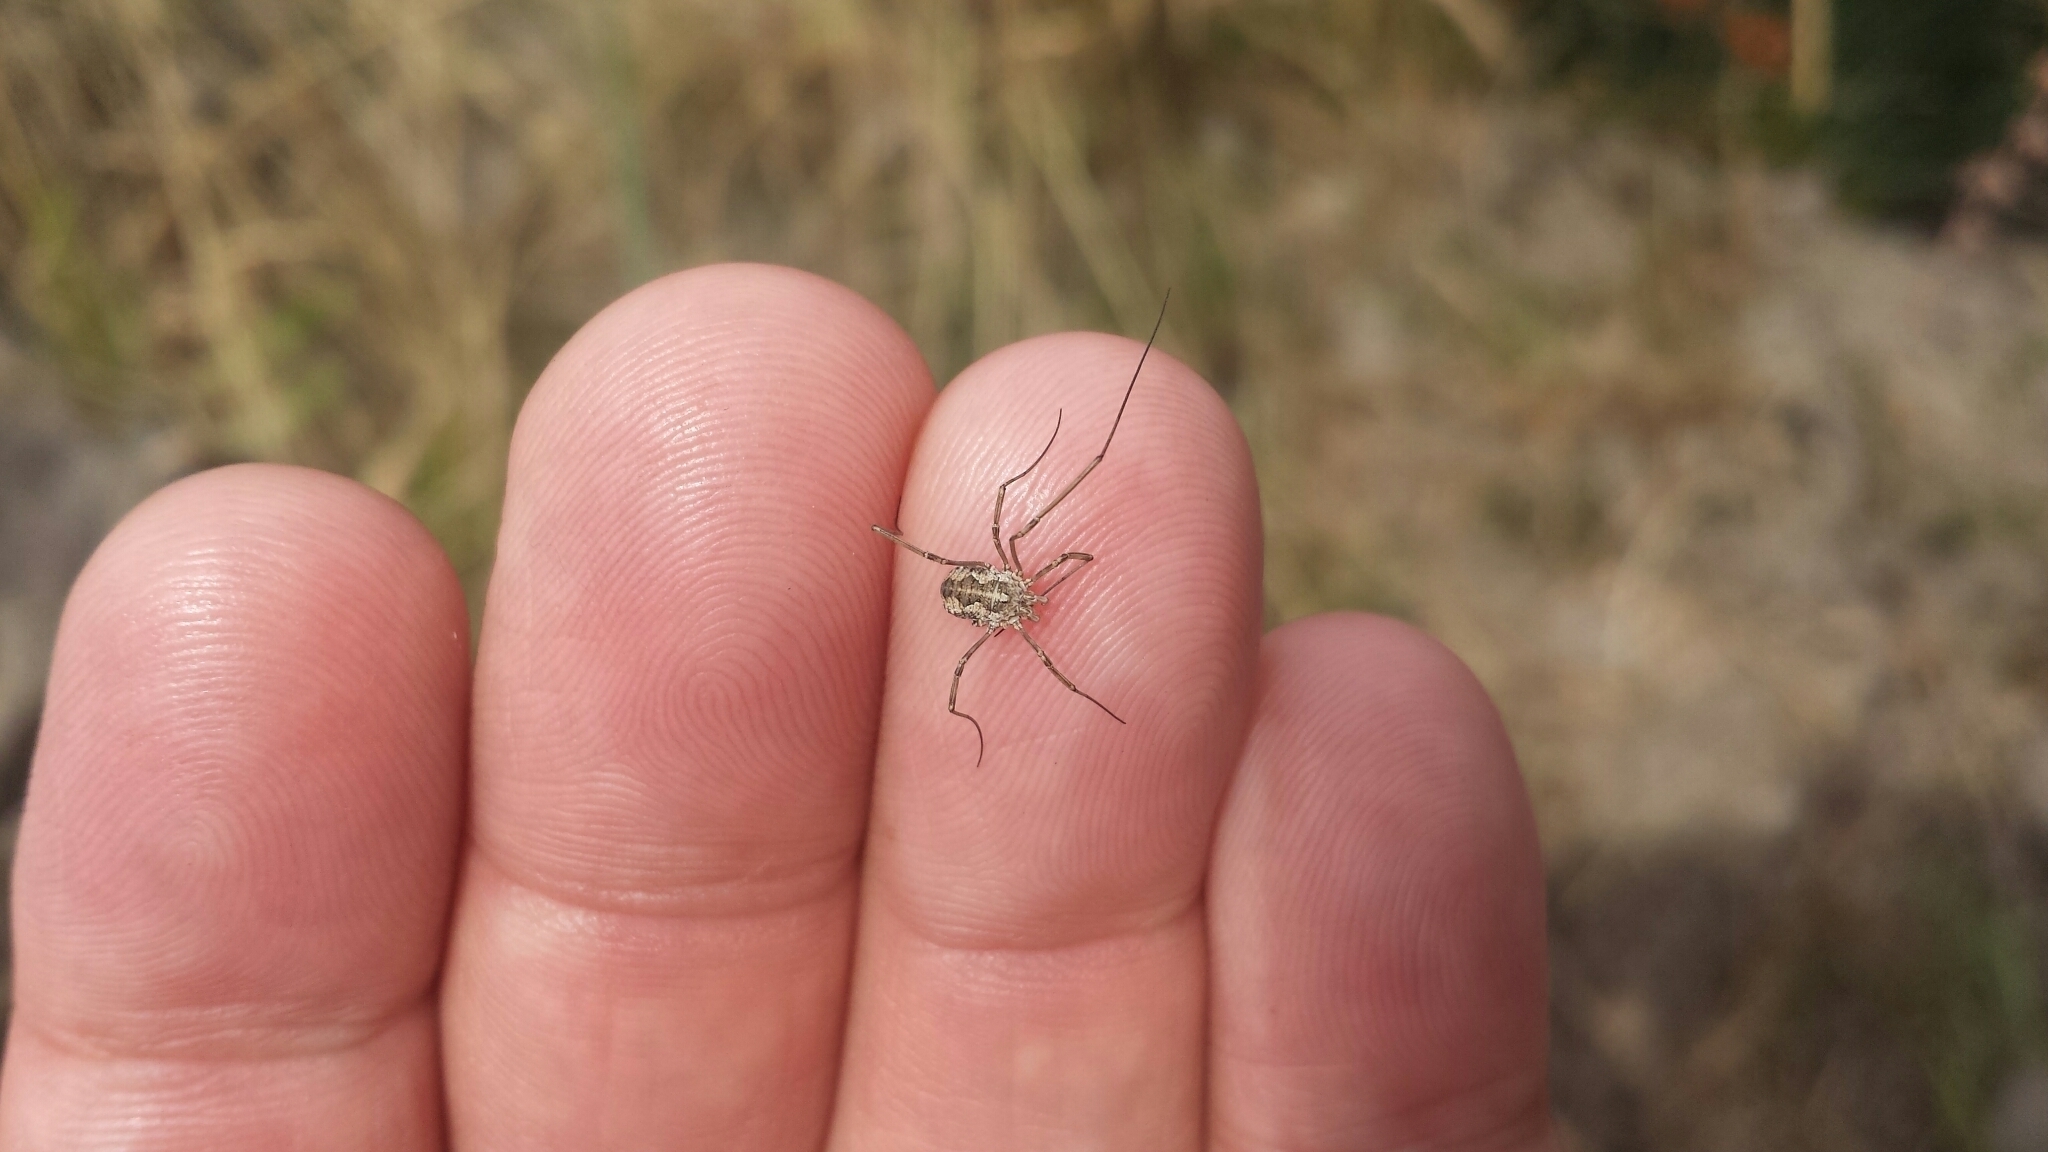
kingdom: Animalia
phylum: Arthropoda
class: Arachnida
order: Opiliones
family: Phalangiidae
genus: Phalangium
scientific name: Phalangium opilio
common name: Daddy longleg
